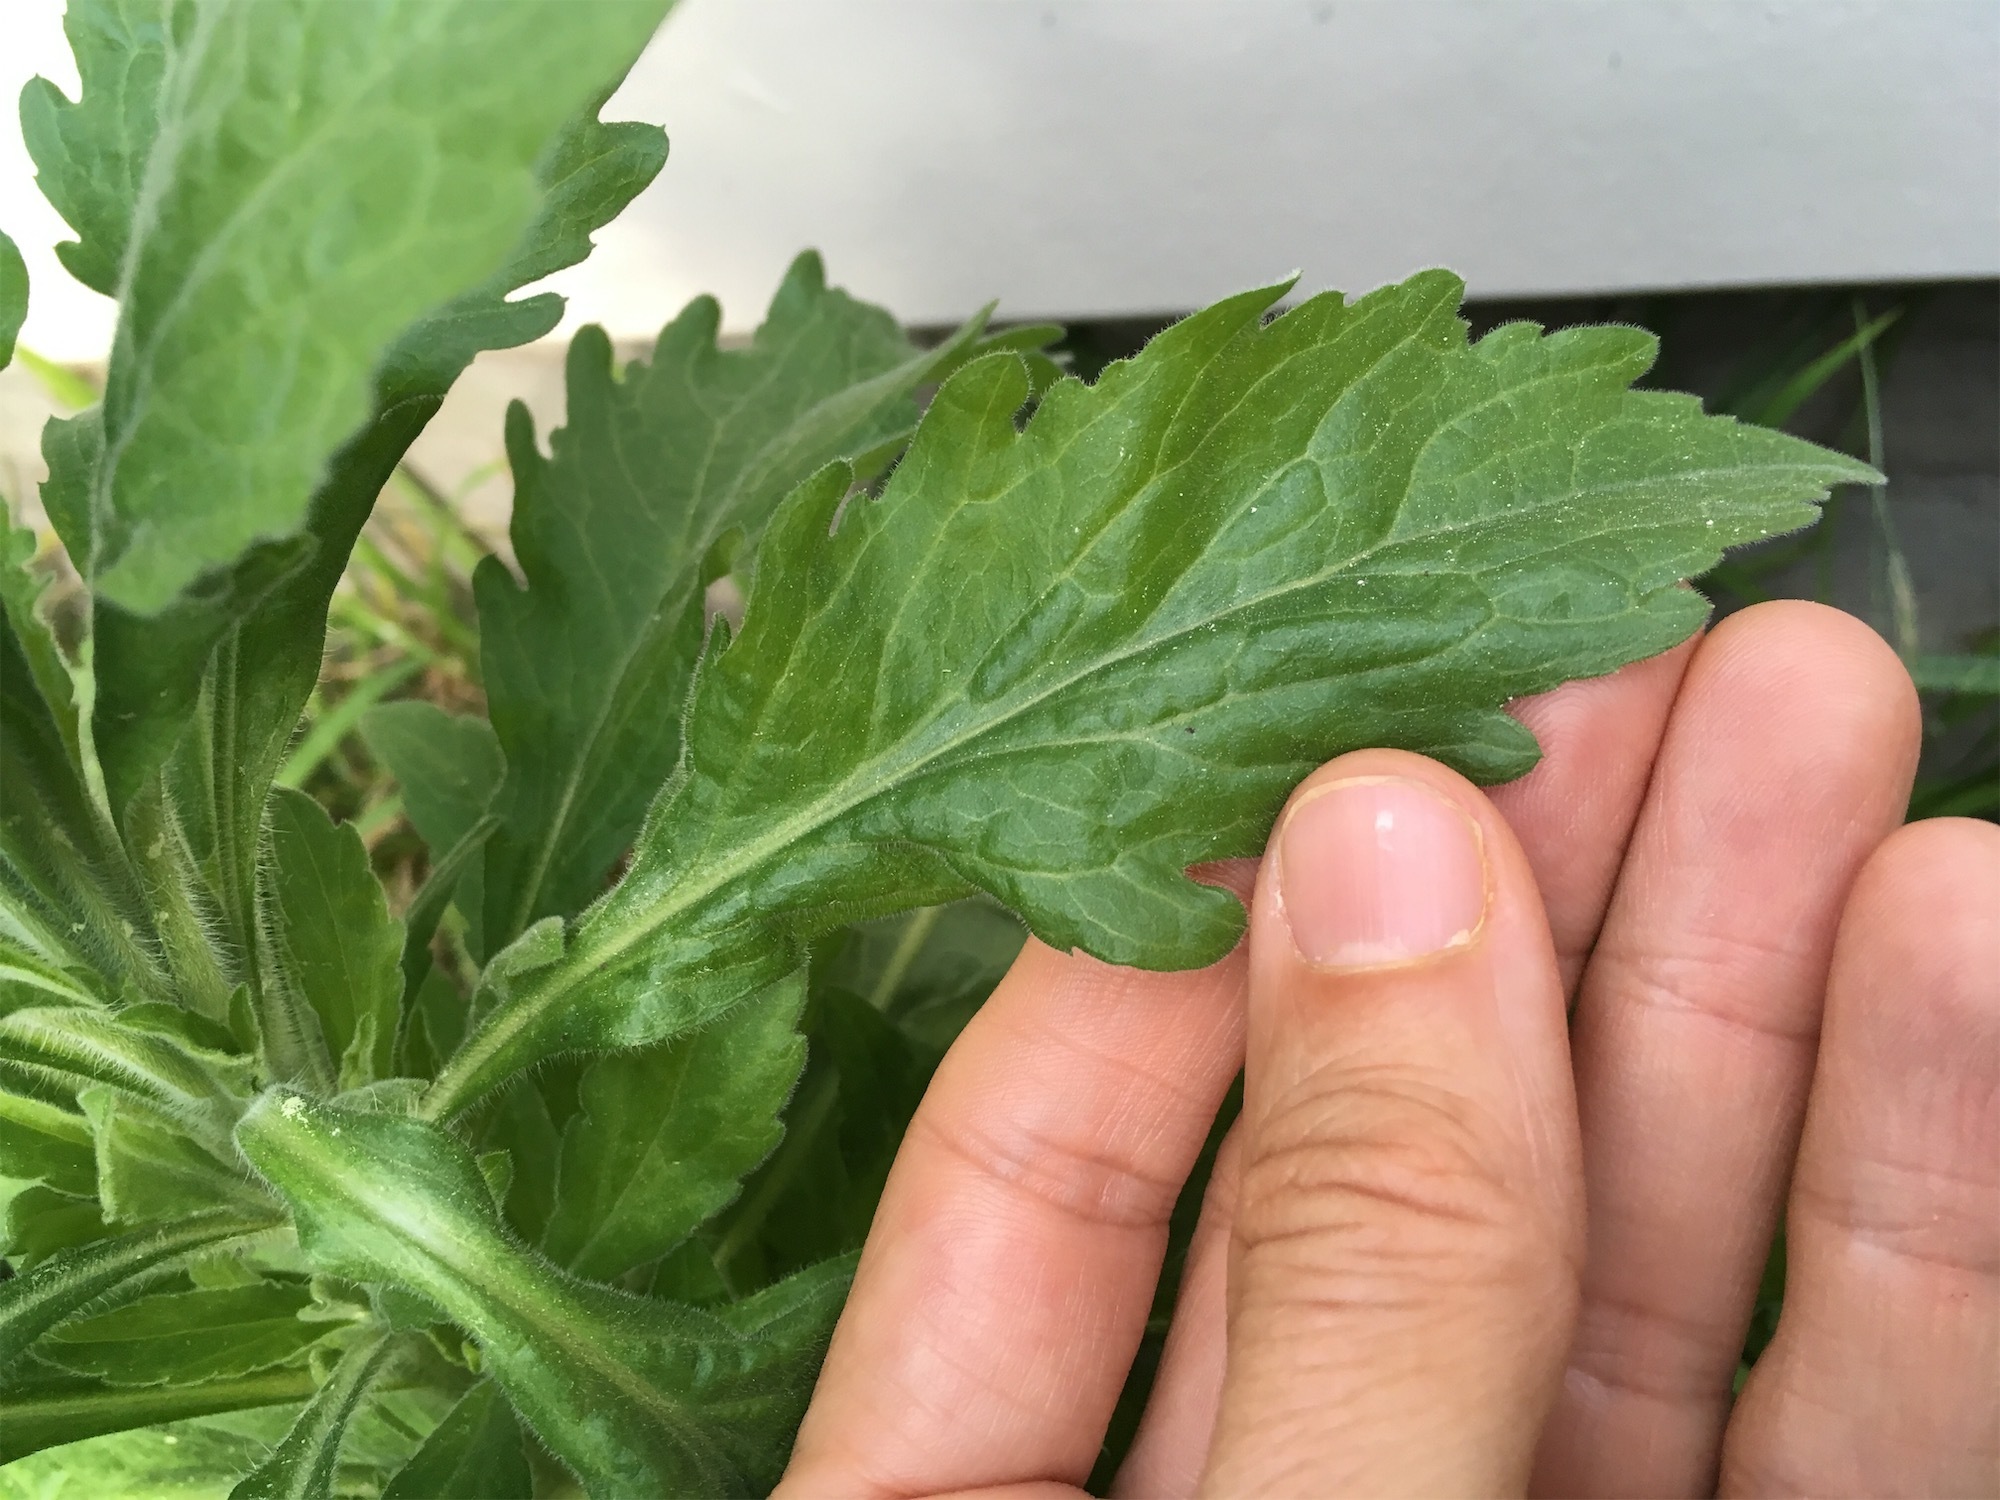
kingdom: Plantae
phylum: Tracheophyta
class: Magnoliopsida
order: Asterales
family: Asteraceae
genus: Erigeron
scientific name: Erigeron sumatrensis
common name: Daisy
